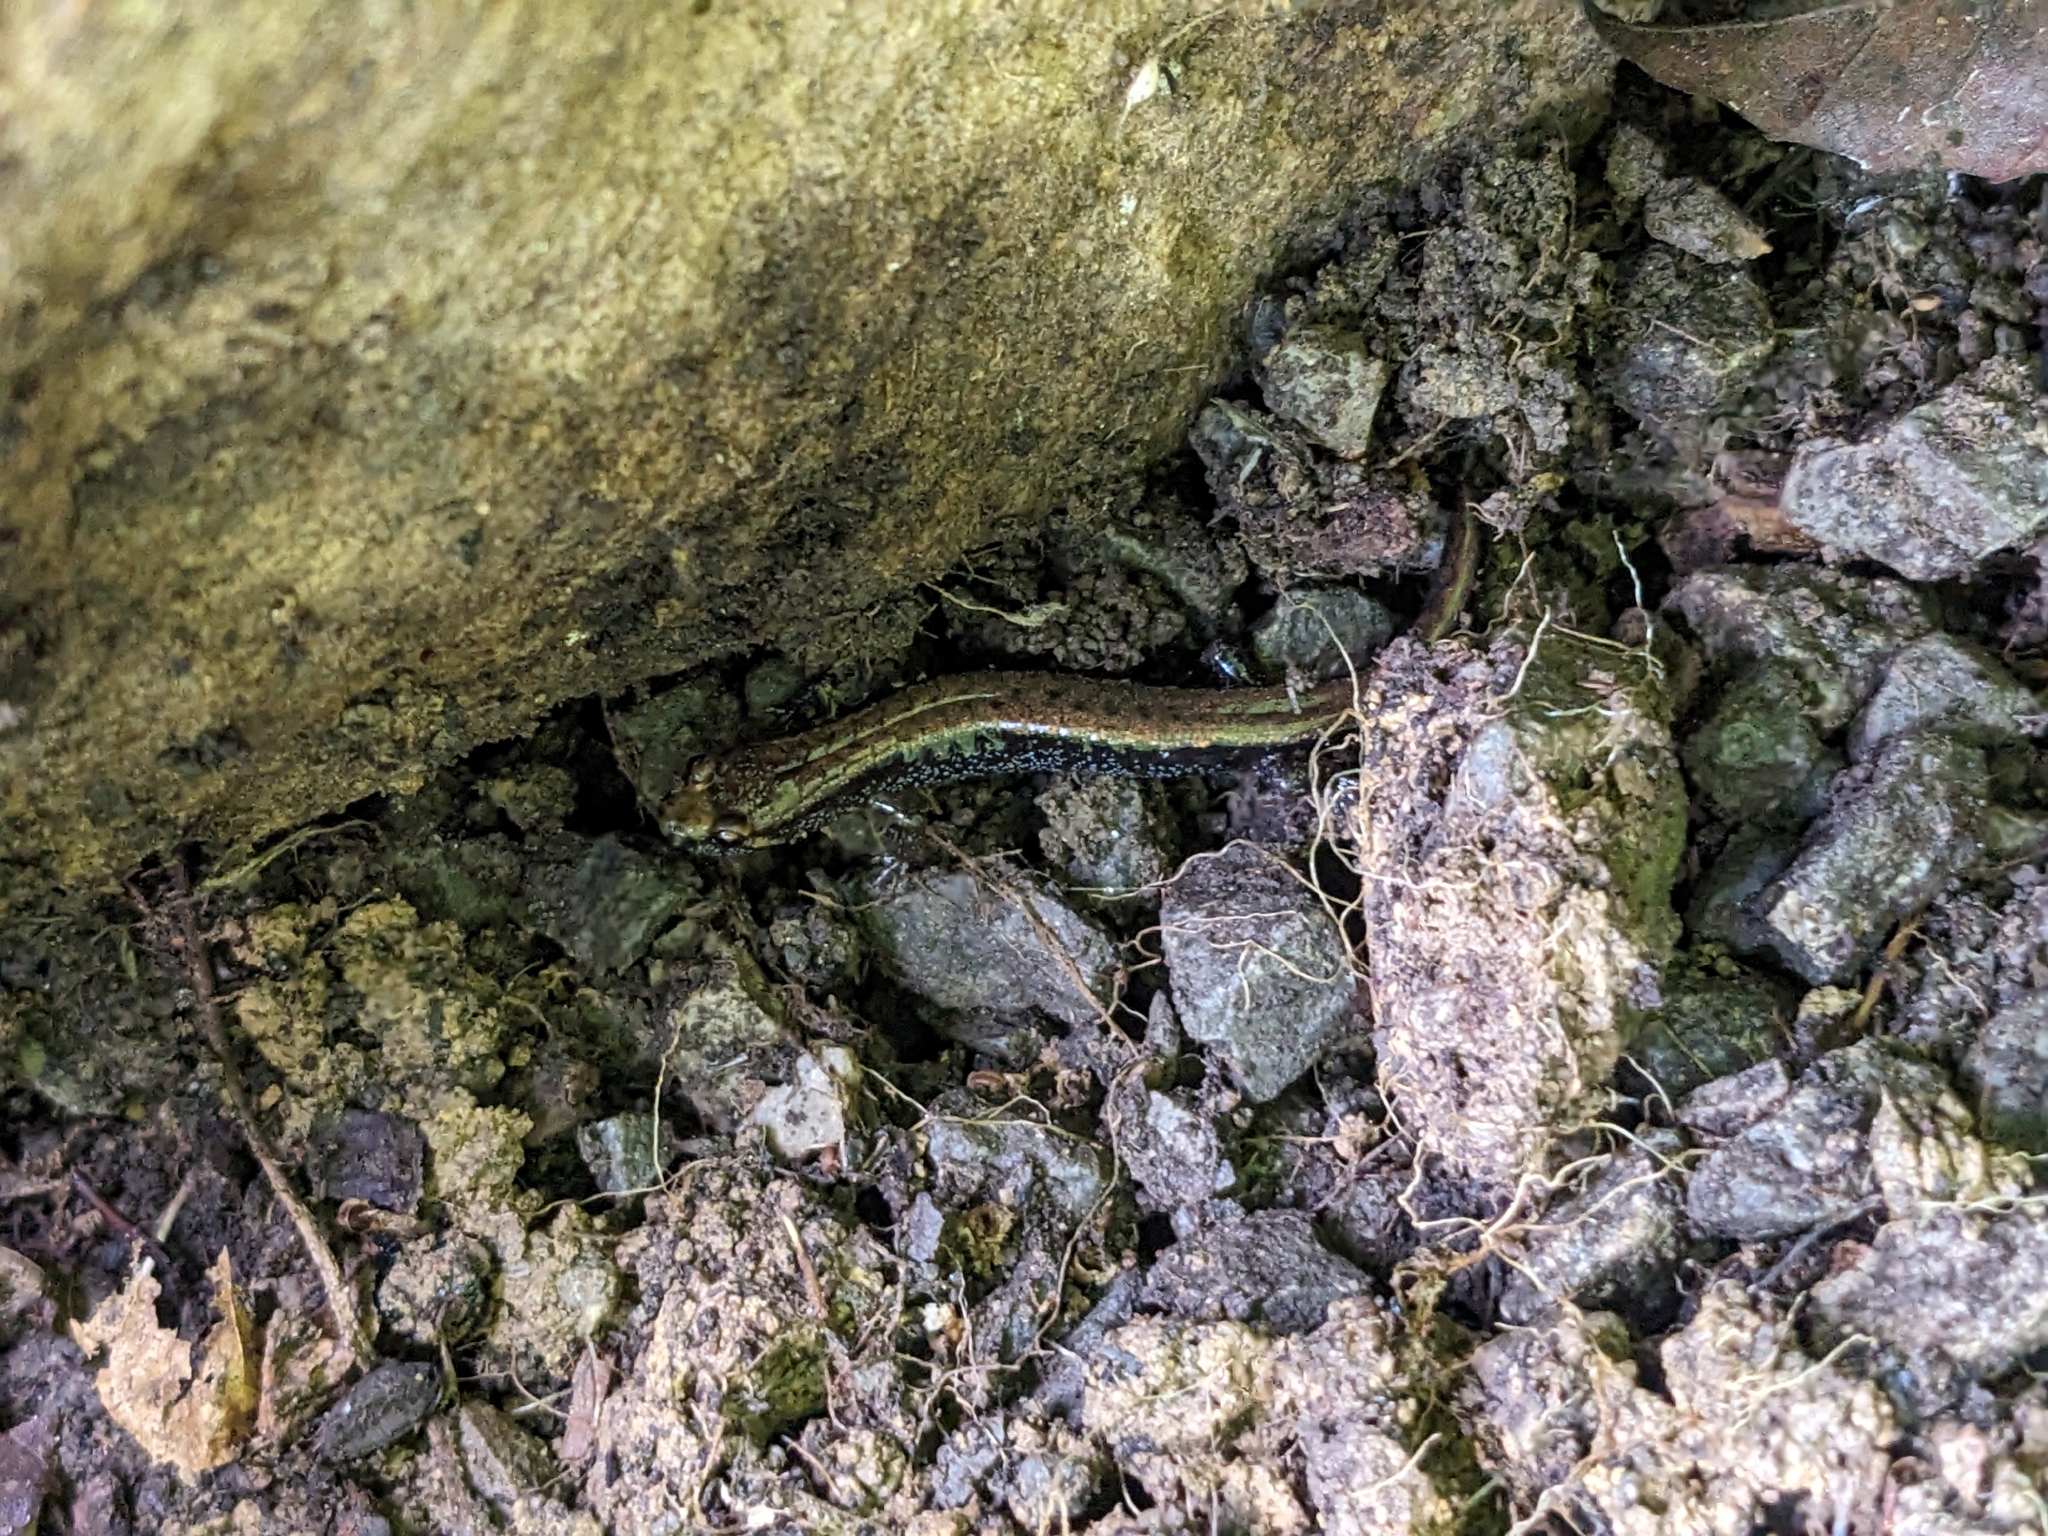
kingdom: Animalia
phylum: Chordata
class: Amphibia
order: Caudata
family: Plethodontidae
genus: Desmognathus
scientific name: Desmognathus ochrophaeus
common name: Allegheny mountain dusky salamander
